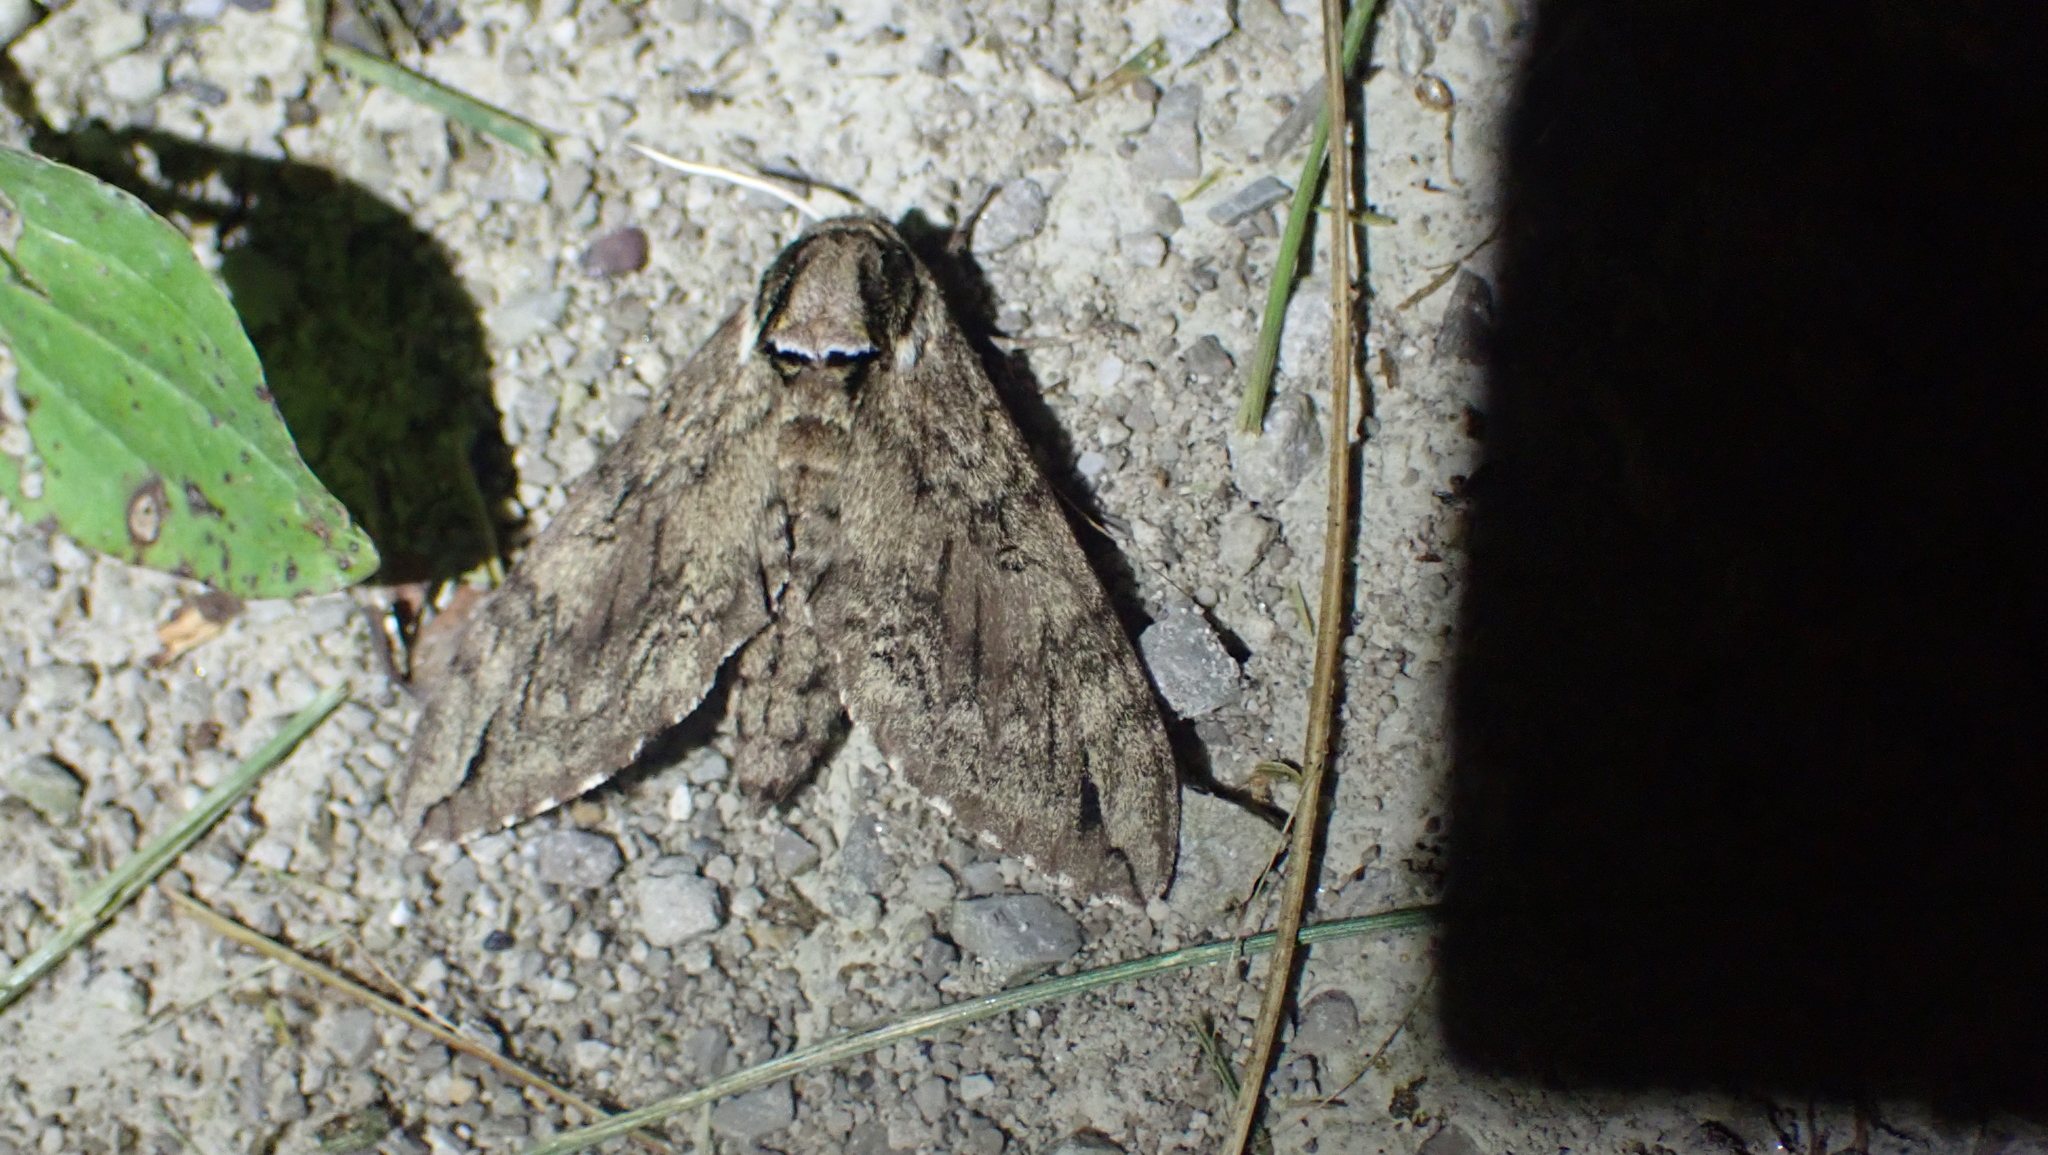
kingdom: Animalia
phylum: Arthropoda
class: Insecta
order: Lepidoptera
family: Sphingidae
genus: Ceratomia
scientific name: Ceratomia catalpae
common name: Catalpa hornworm
